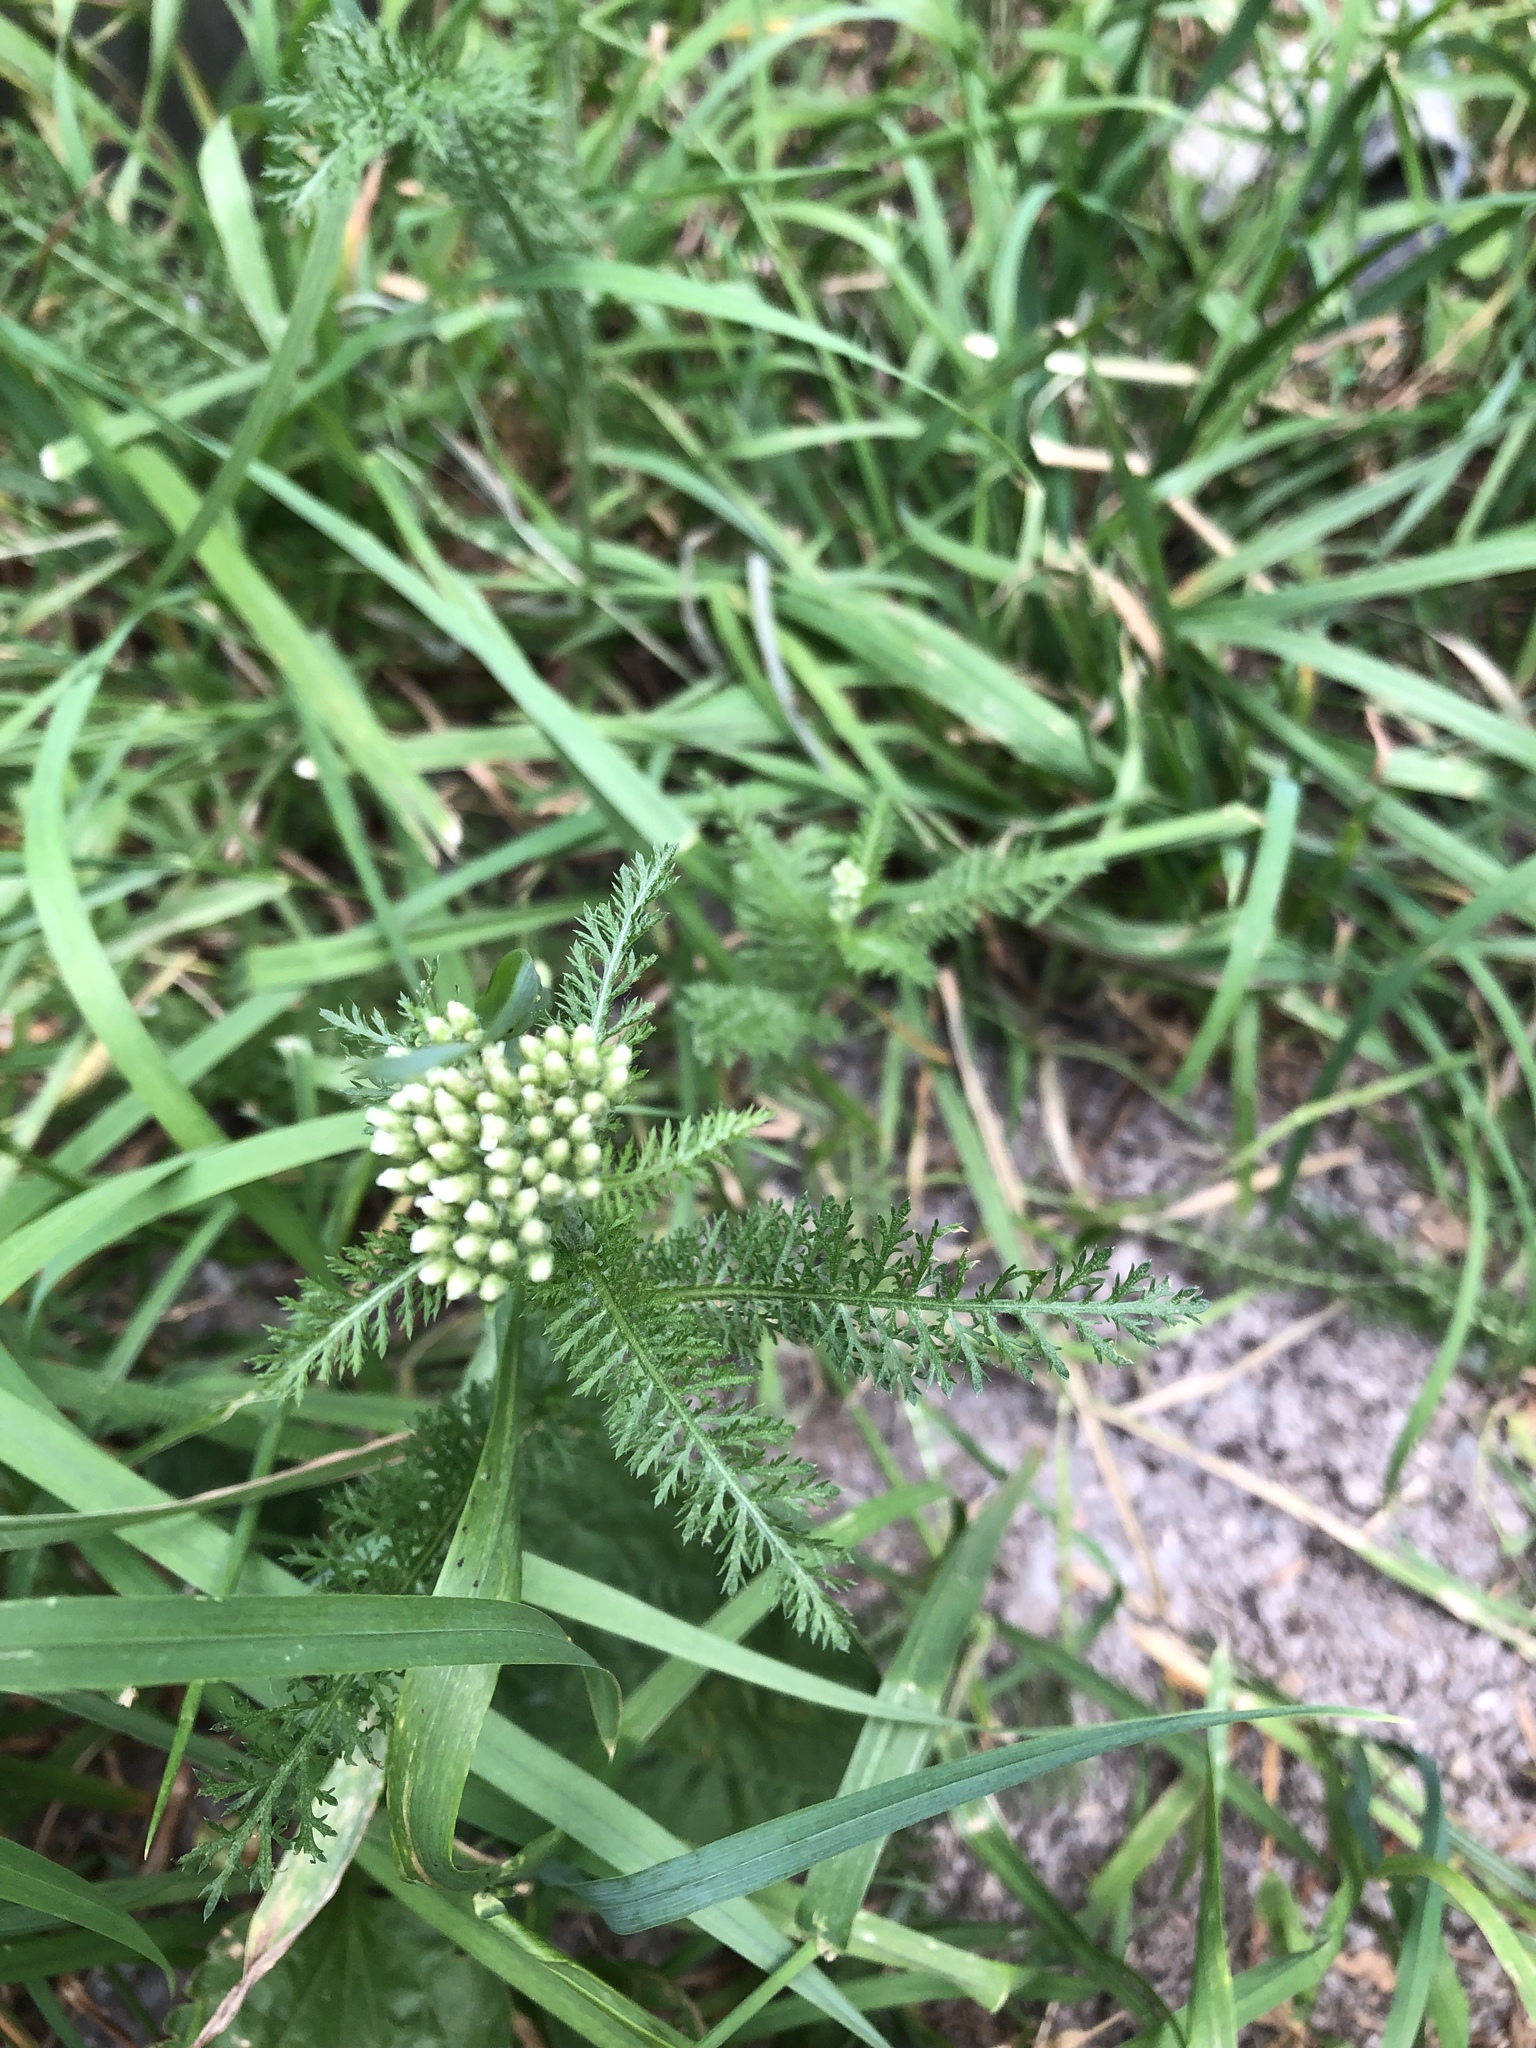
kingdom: Plantae
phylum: Tracheophyta
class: Magnoliopsida
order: Asterales
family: Asteraceae
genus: Achillea
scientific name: Achillea millefolium
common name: Yarrow
